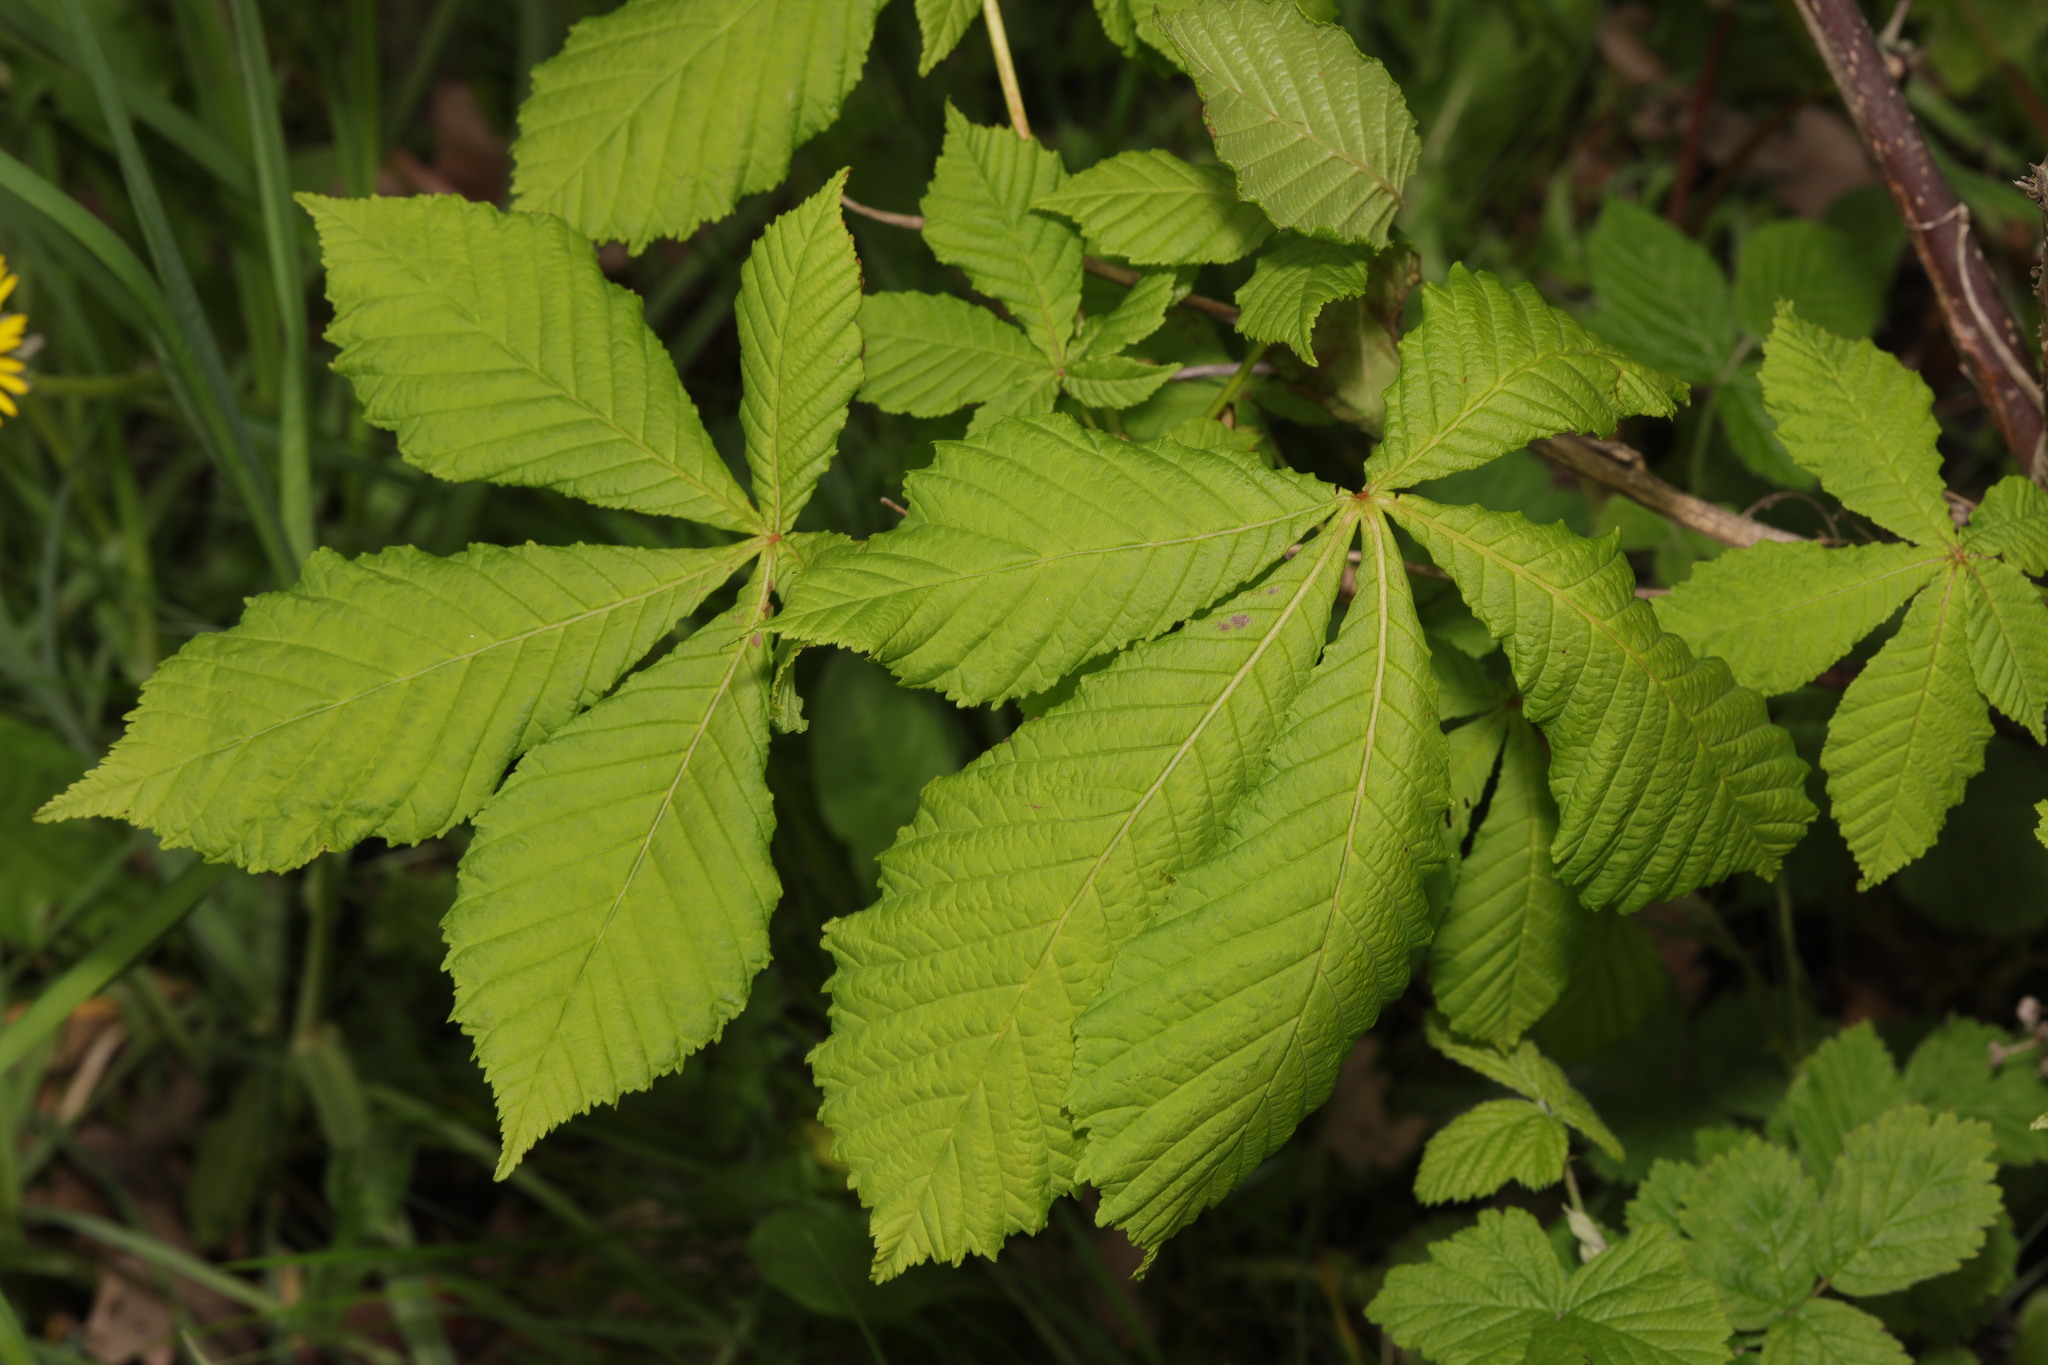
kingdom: Plantae
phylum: Tracheophyta
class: Magnoliopsida
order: Sapindales
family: Sapindaceae
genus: Aesculus
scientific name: Aesculus hippocastanum
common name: Horse-chestnut
